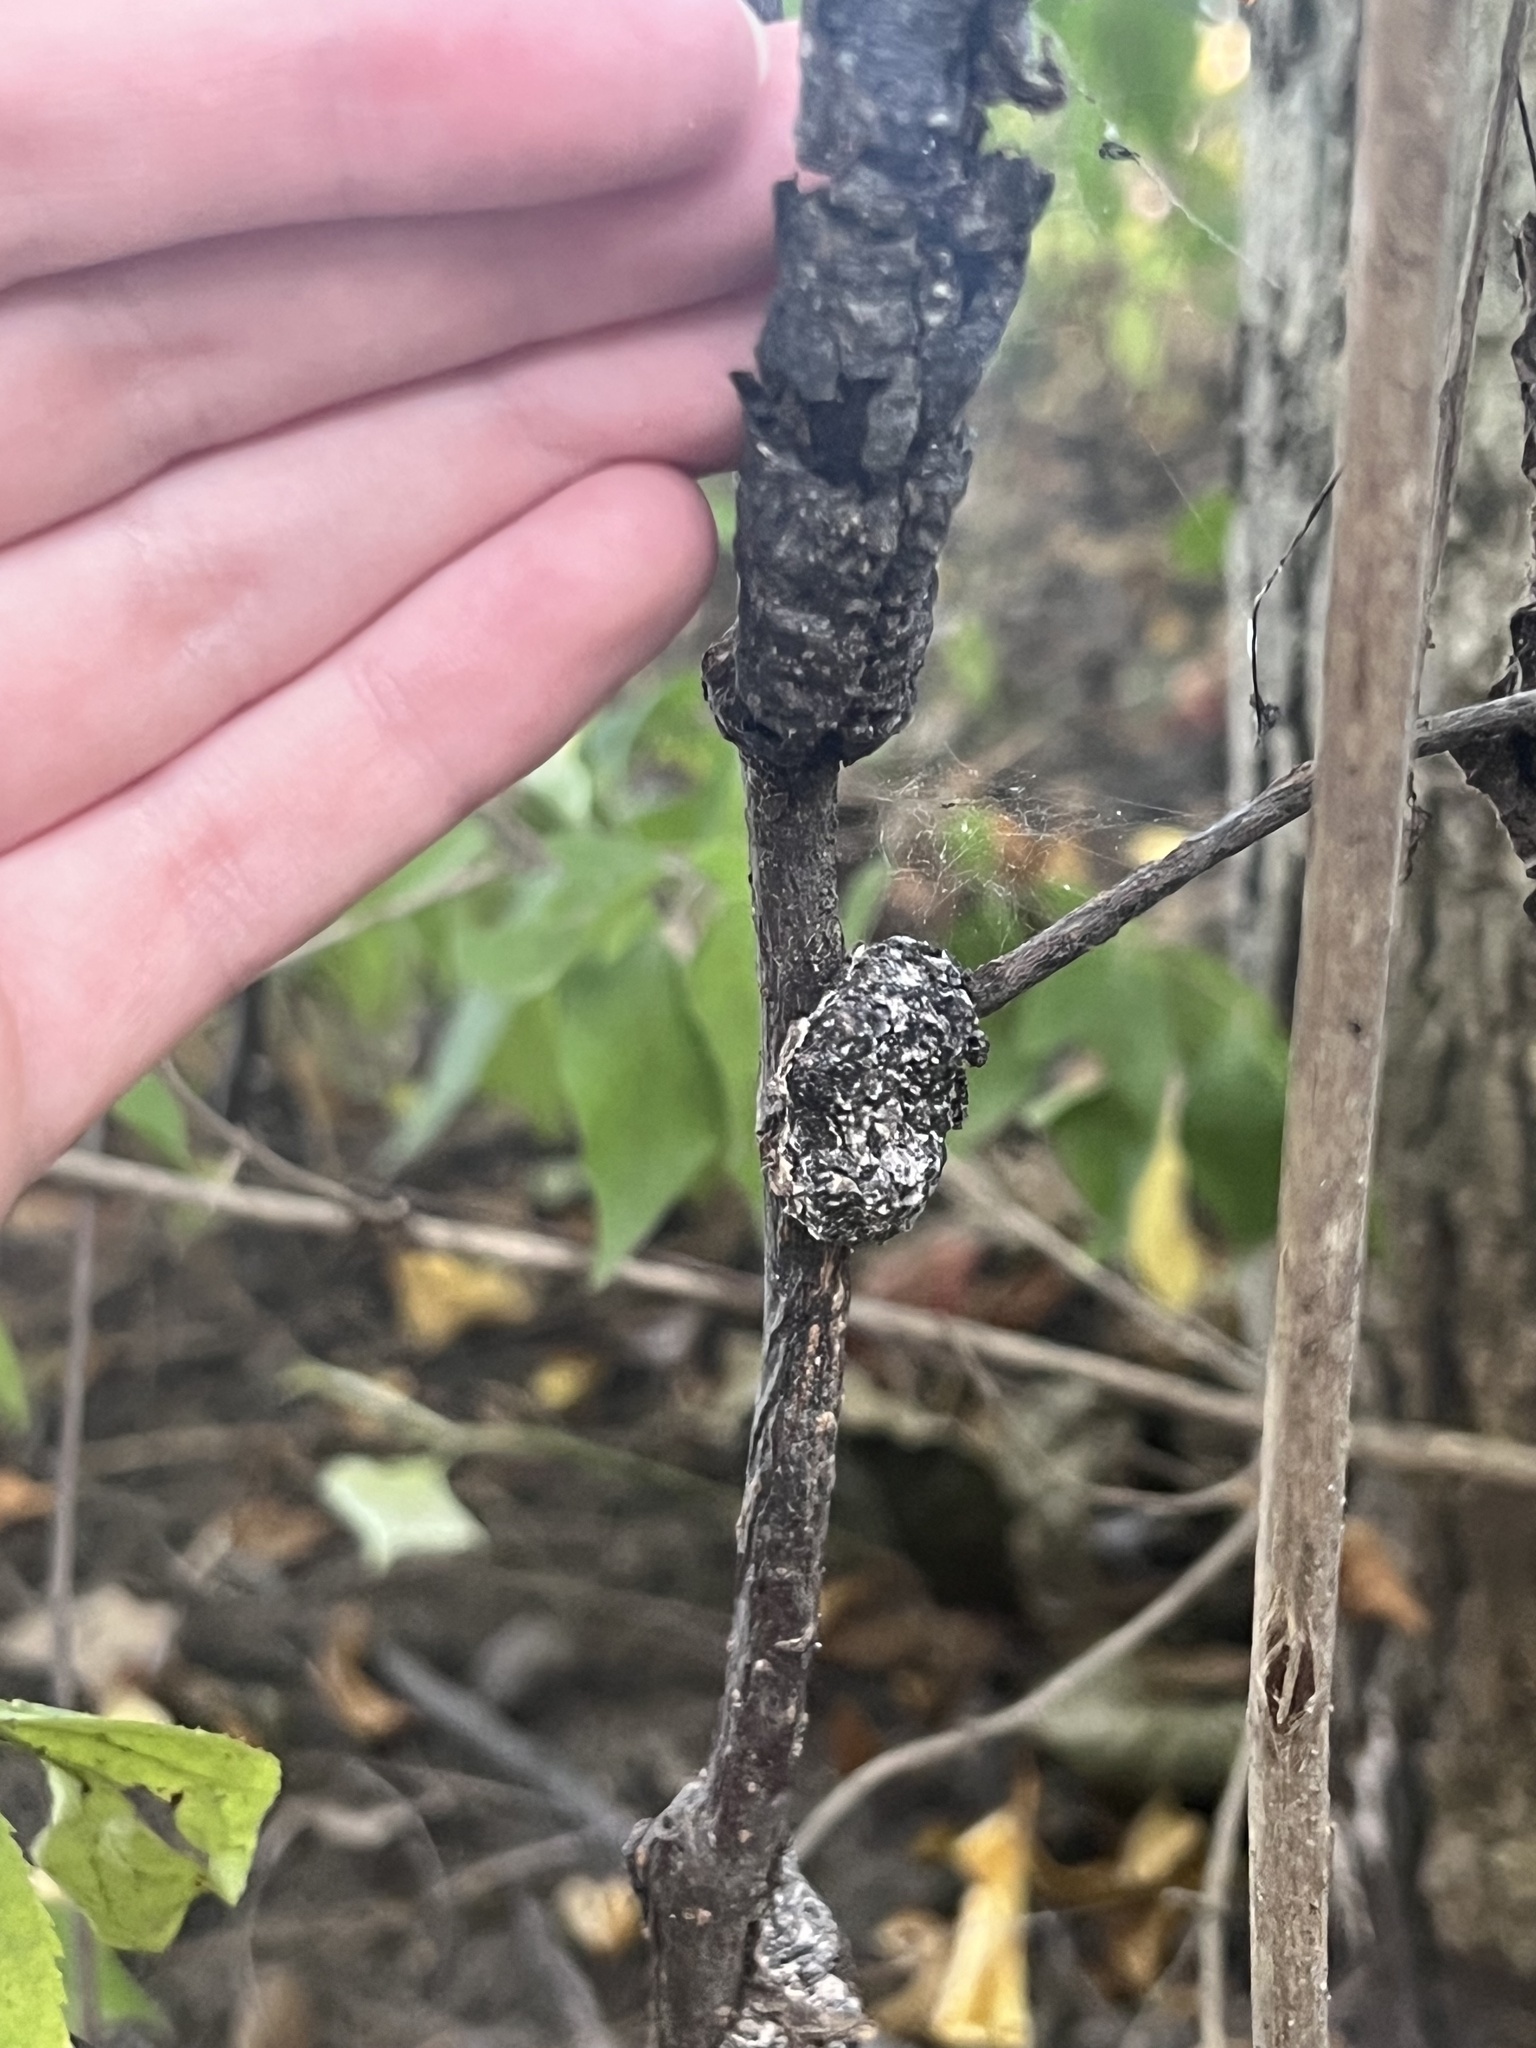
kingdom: Fungi
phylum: Ascomycota
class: Dothideomycetes
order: Venturiales
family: Venturiaceae
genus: Apiosporina
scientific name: Apiosporina morbosa
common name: Black knot
